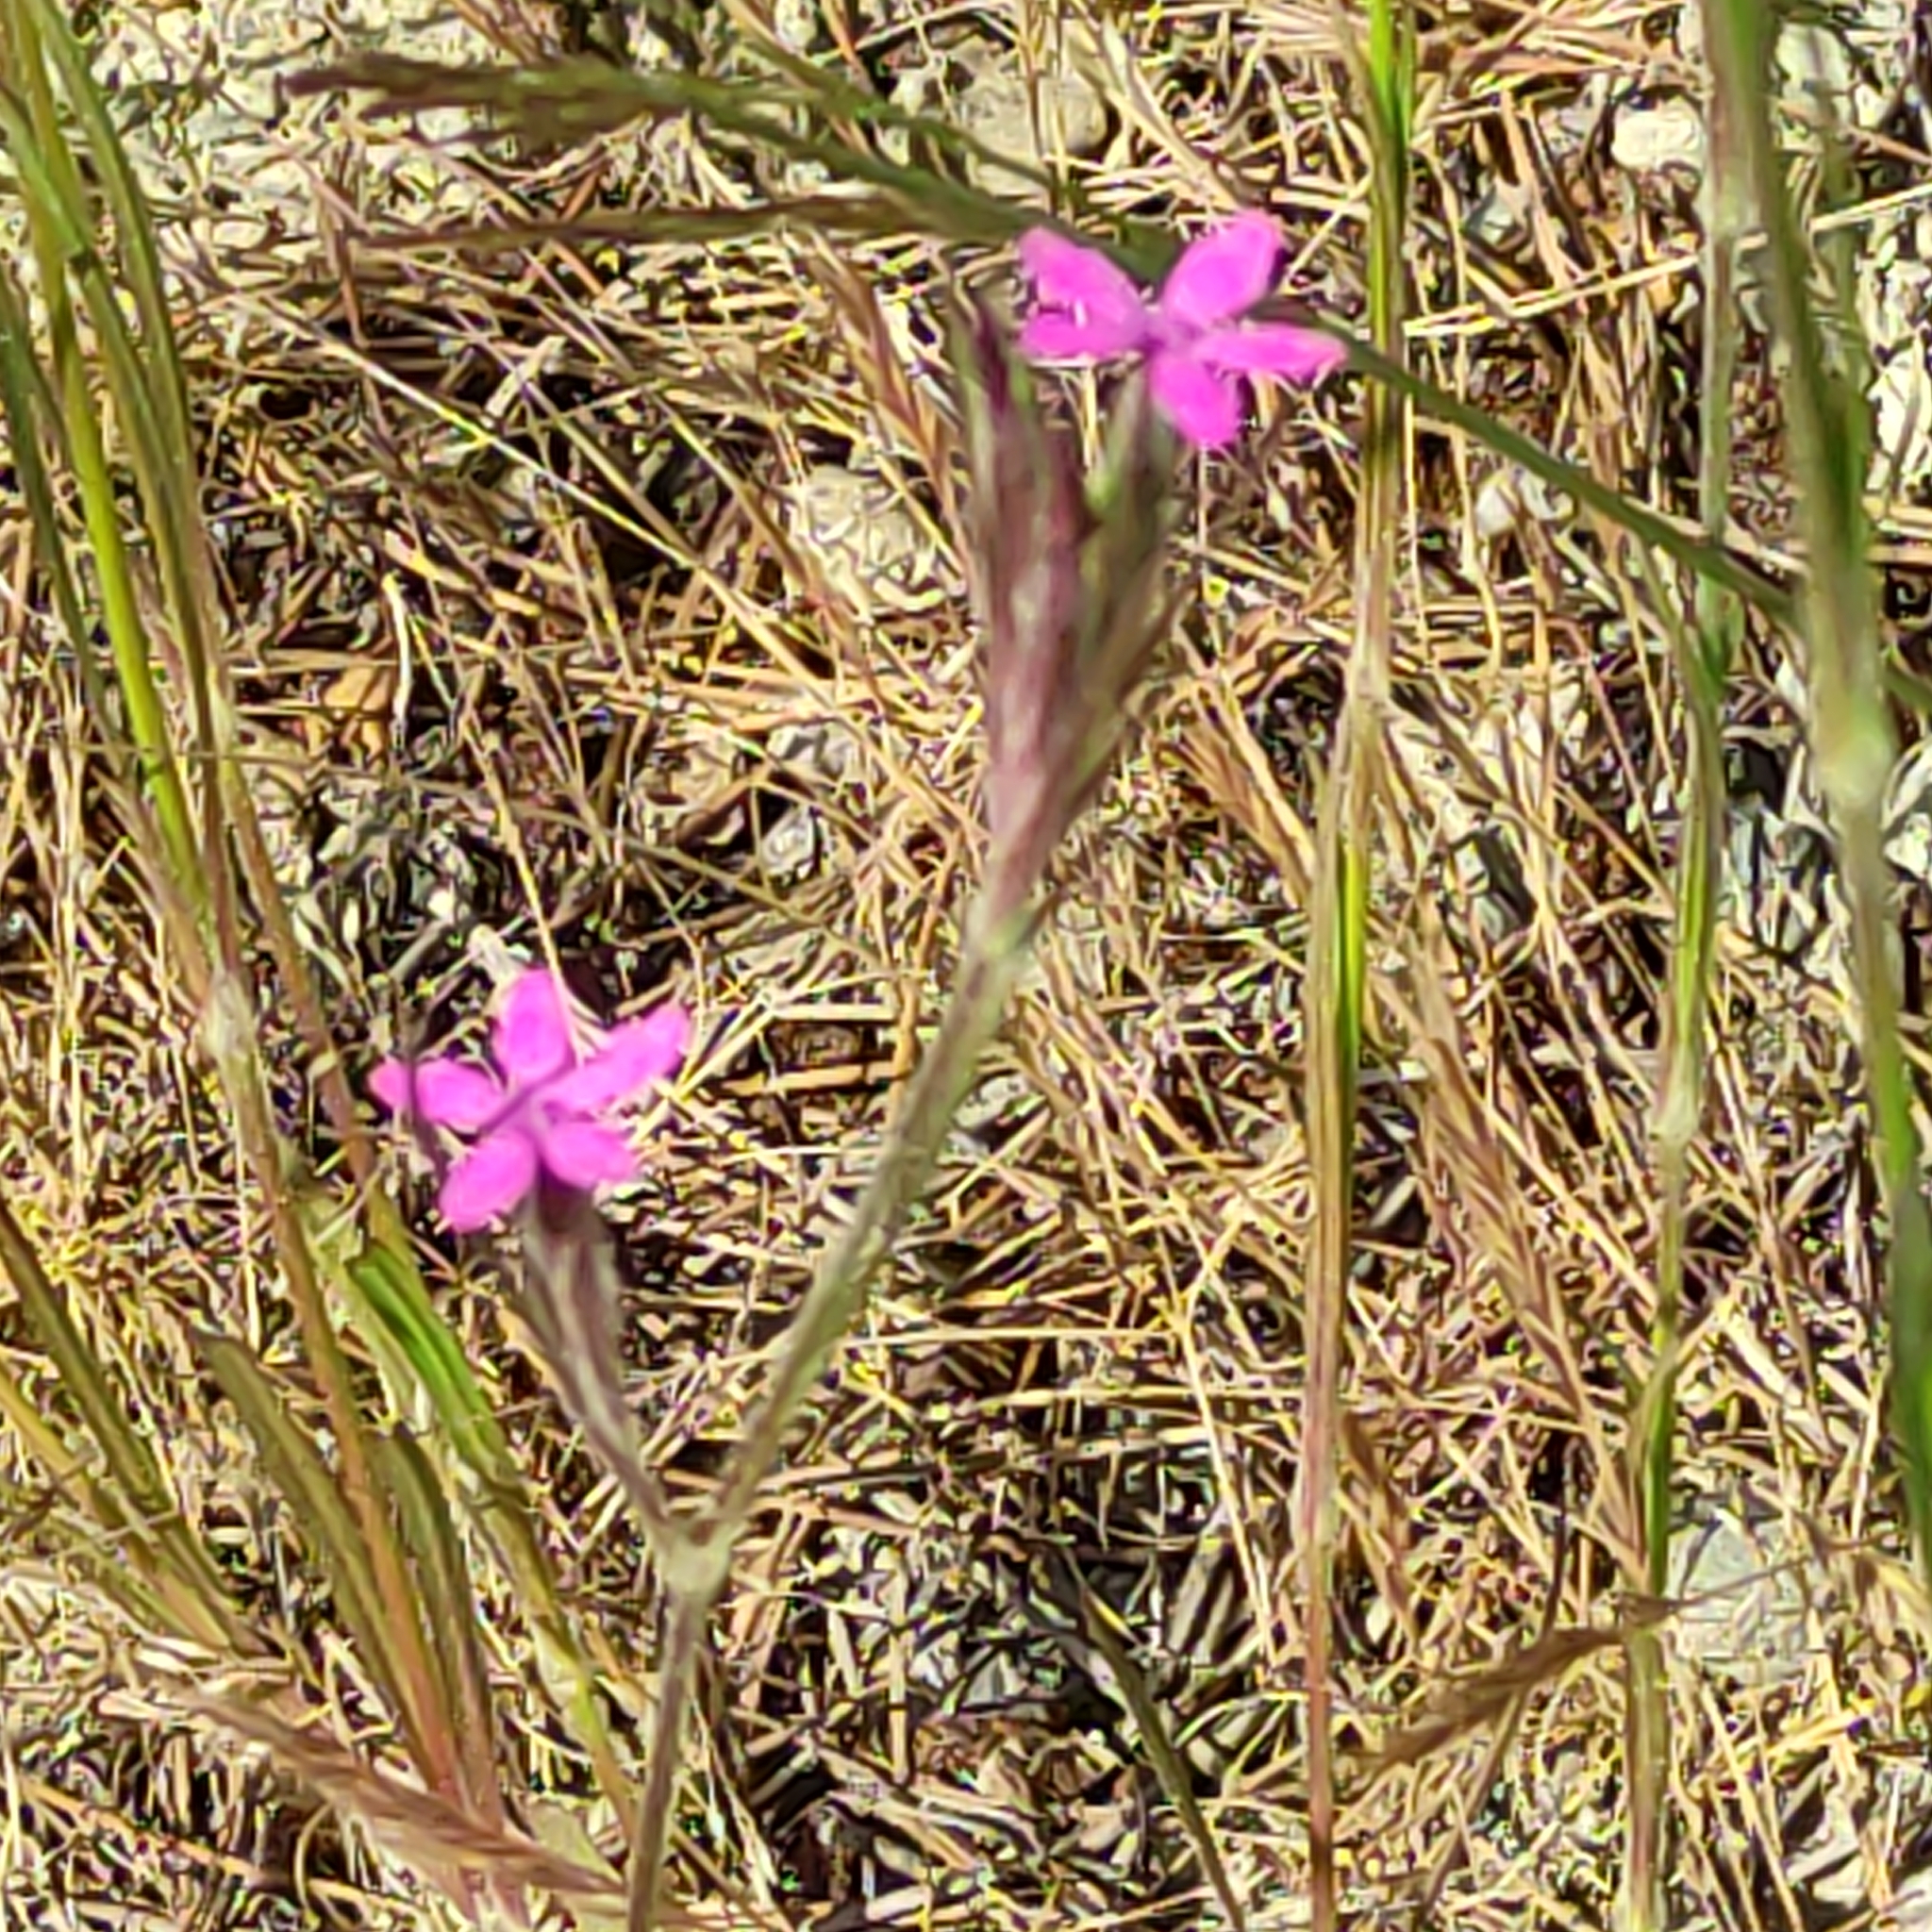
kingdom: Plantae
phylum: Tracheophyta
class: Magnoliopsida
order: Caryophyllales
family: Caryophyllaceae
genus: Dianthus
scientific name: Dianthus armeria
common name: Deptford pink
